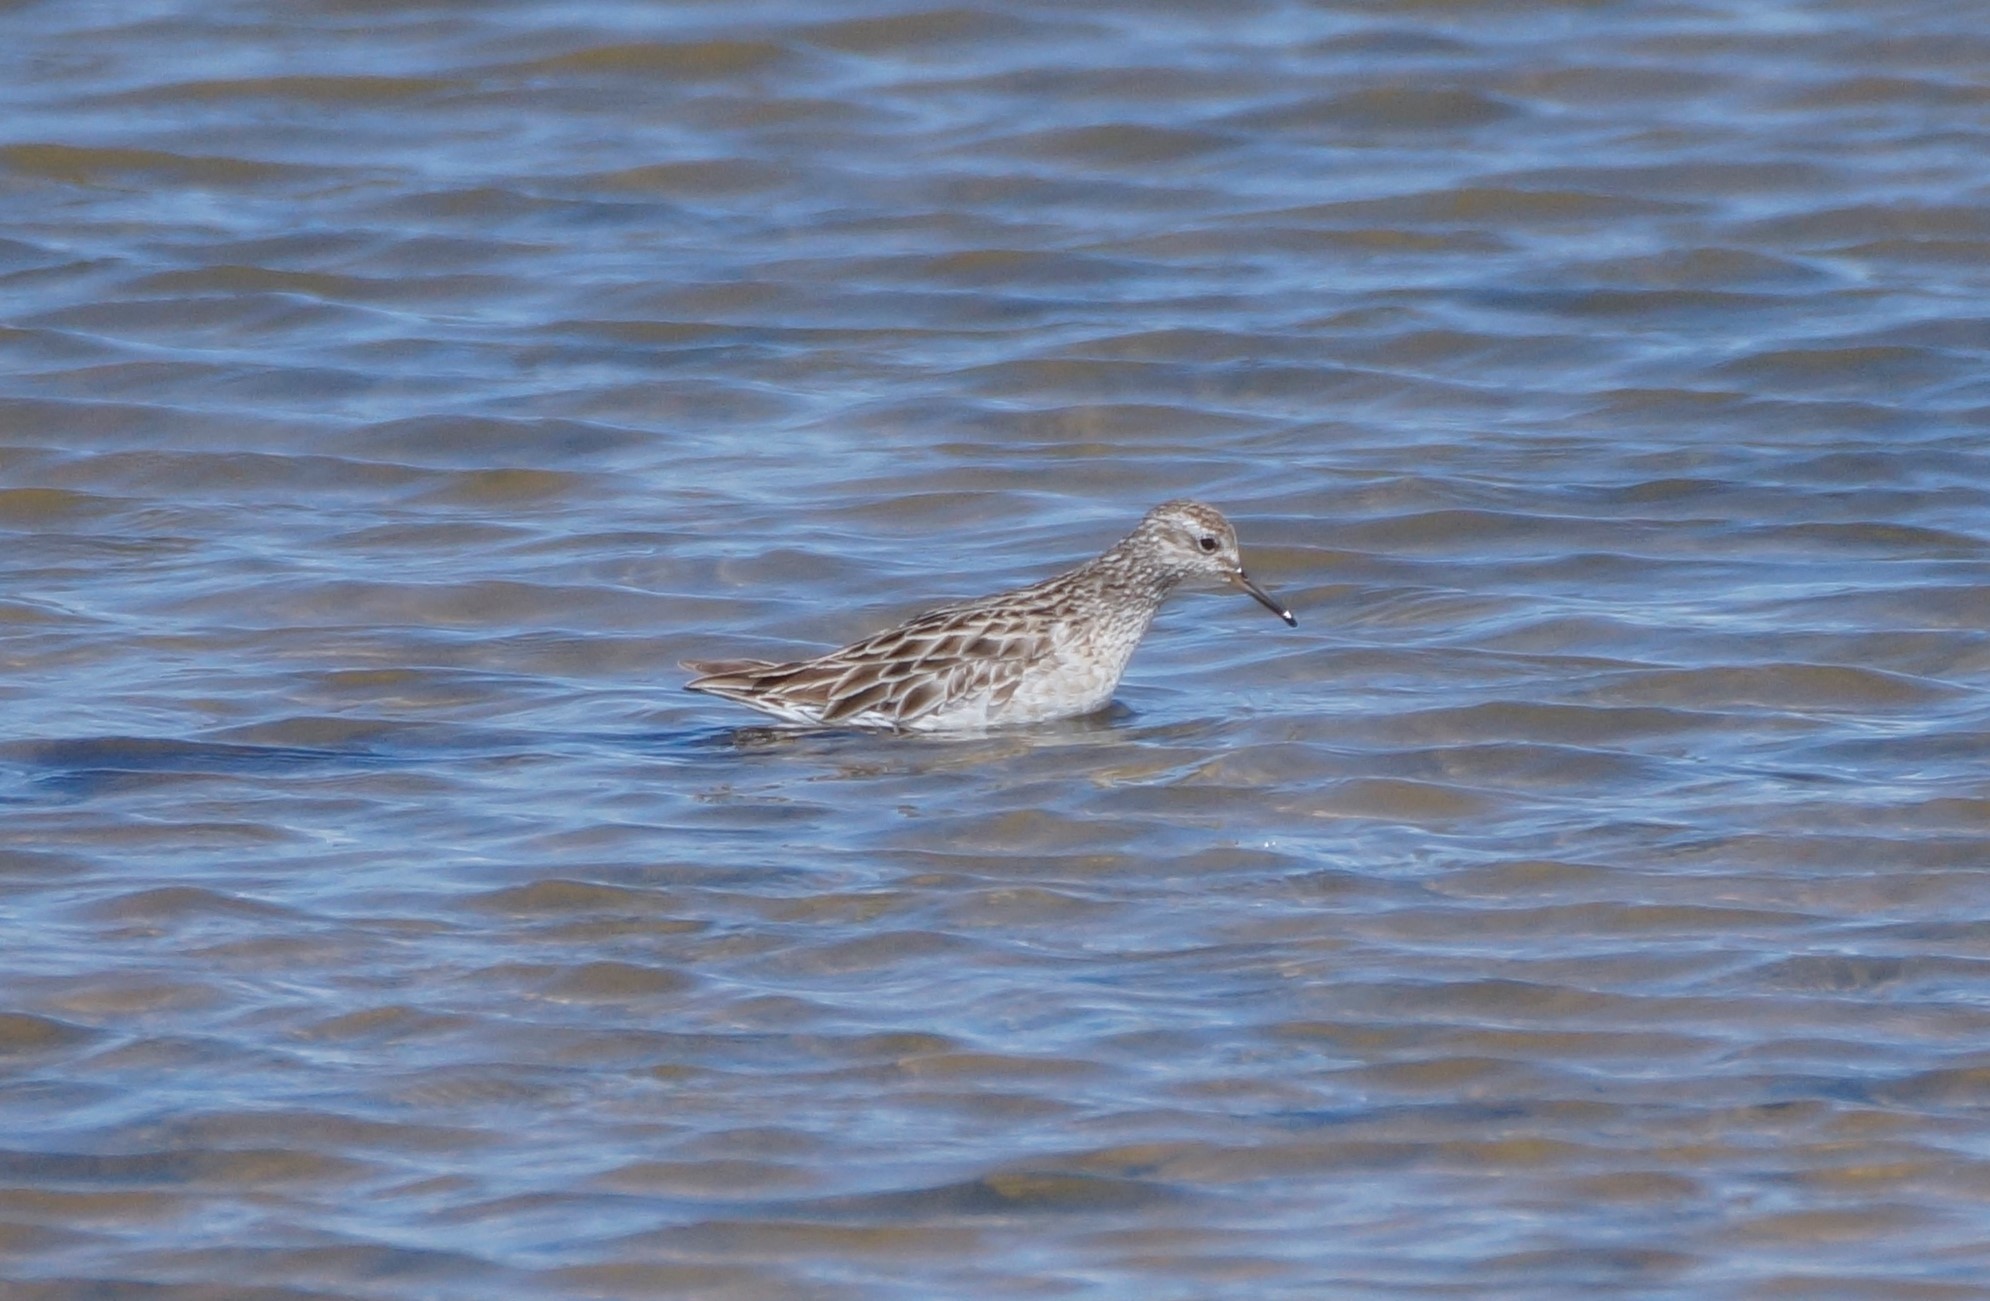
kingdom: Animalia
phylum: Chordata
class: Aves
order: Charadriiformes
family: Scolopacidae
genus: Calidris
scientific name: Calidris acuminata
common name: Sharp-tailed sandpiper
